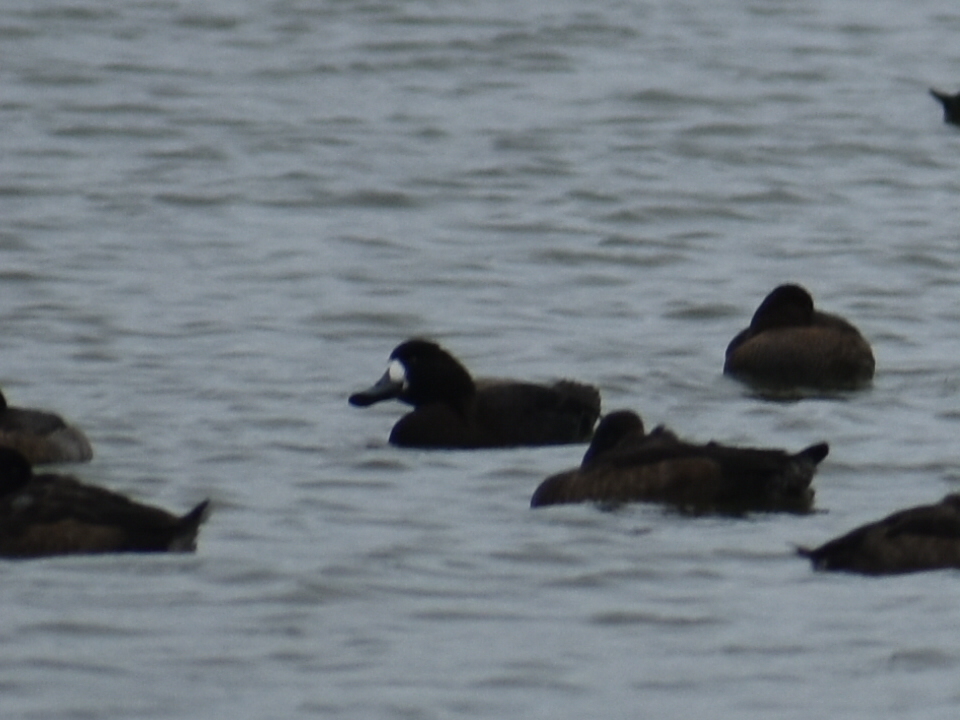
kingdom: Animalia
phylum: Chordata
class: Aves
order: Anseriformes
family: Anatidae
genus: Aythya
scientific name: Aythya marila
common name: Greater scaup
